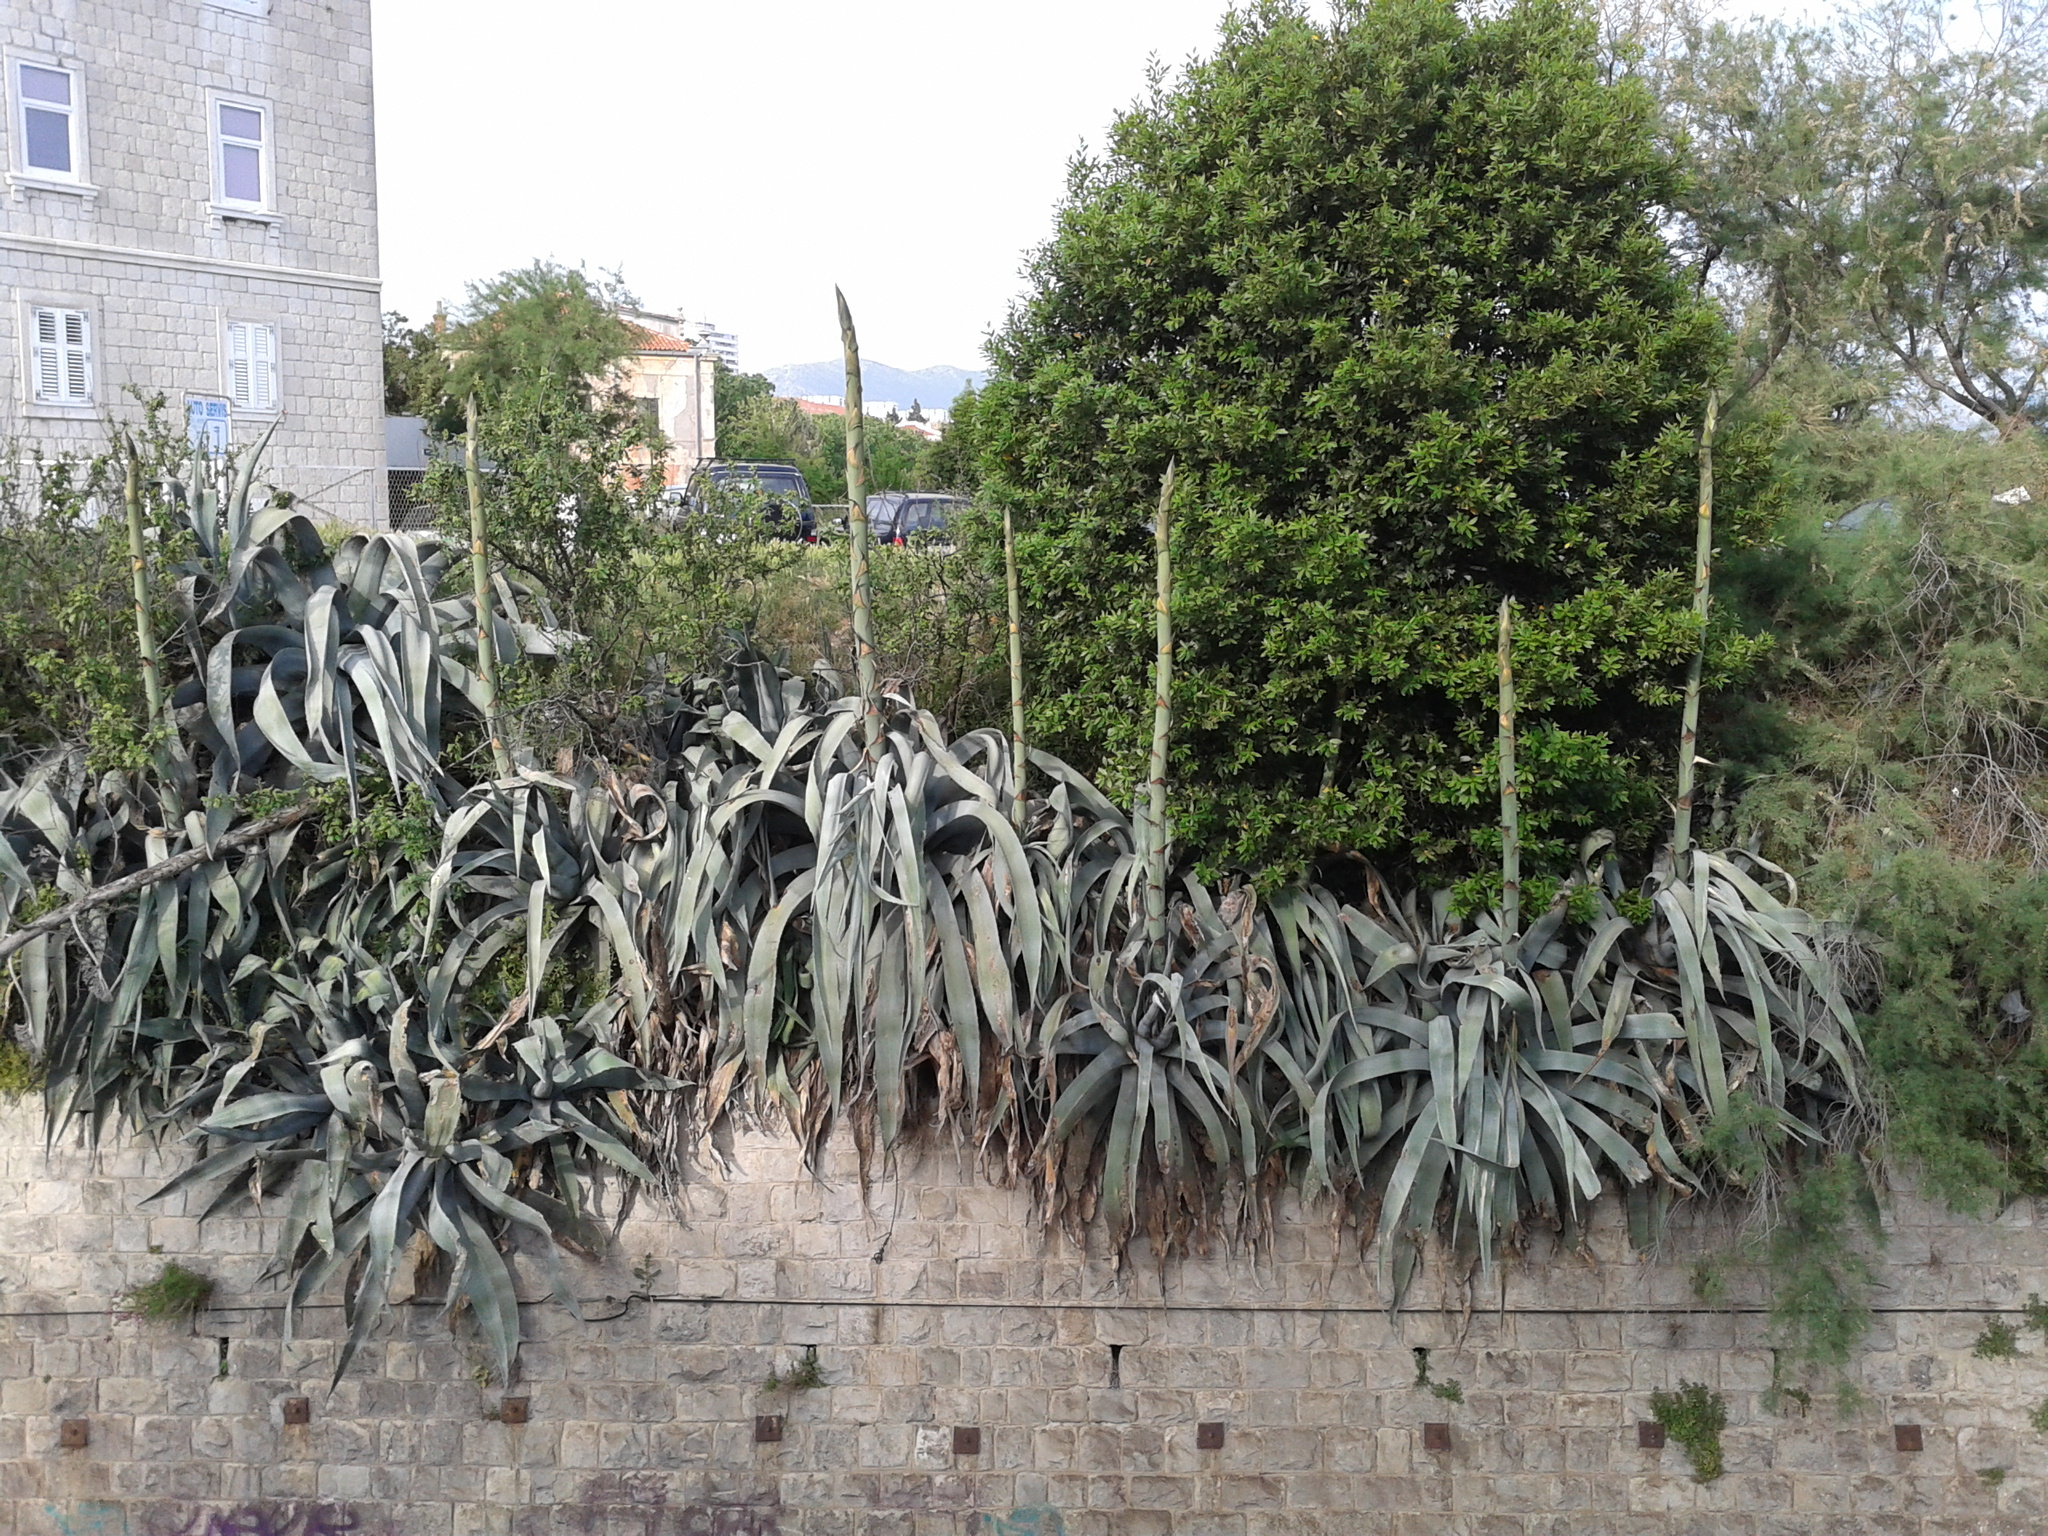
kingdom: Plantae
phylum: Tracheophyta
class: Liliopsida
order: Asparagales
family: Asparagaceae
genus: Agave
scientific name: Agave americana
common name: Centuryplant
